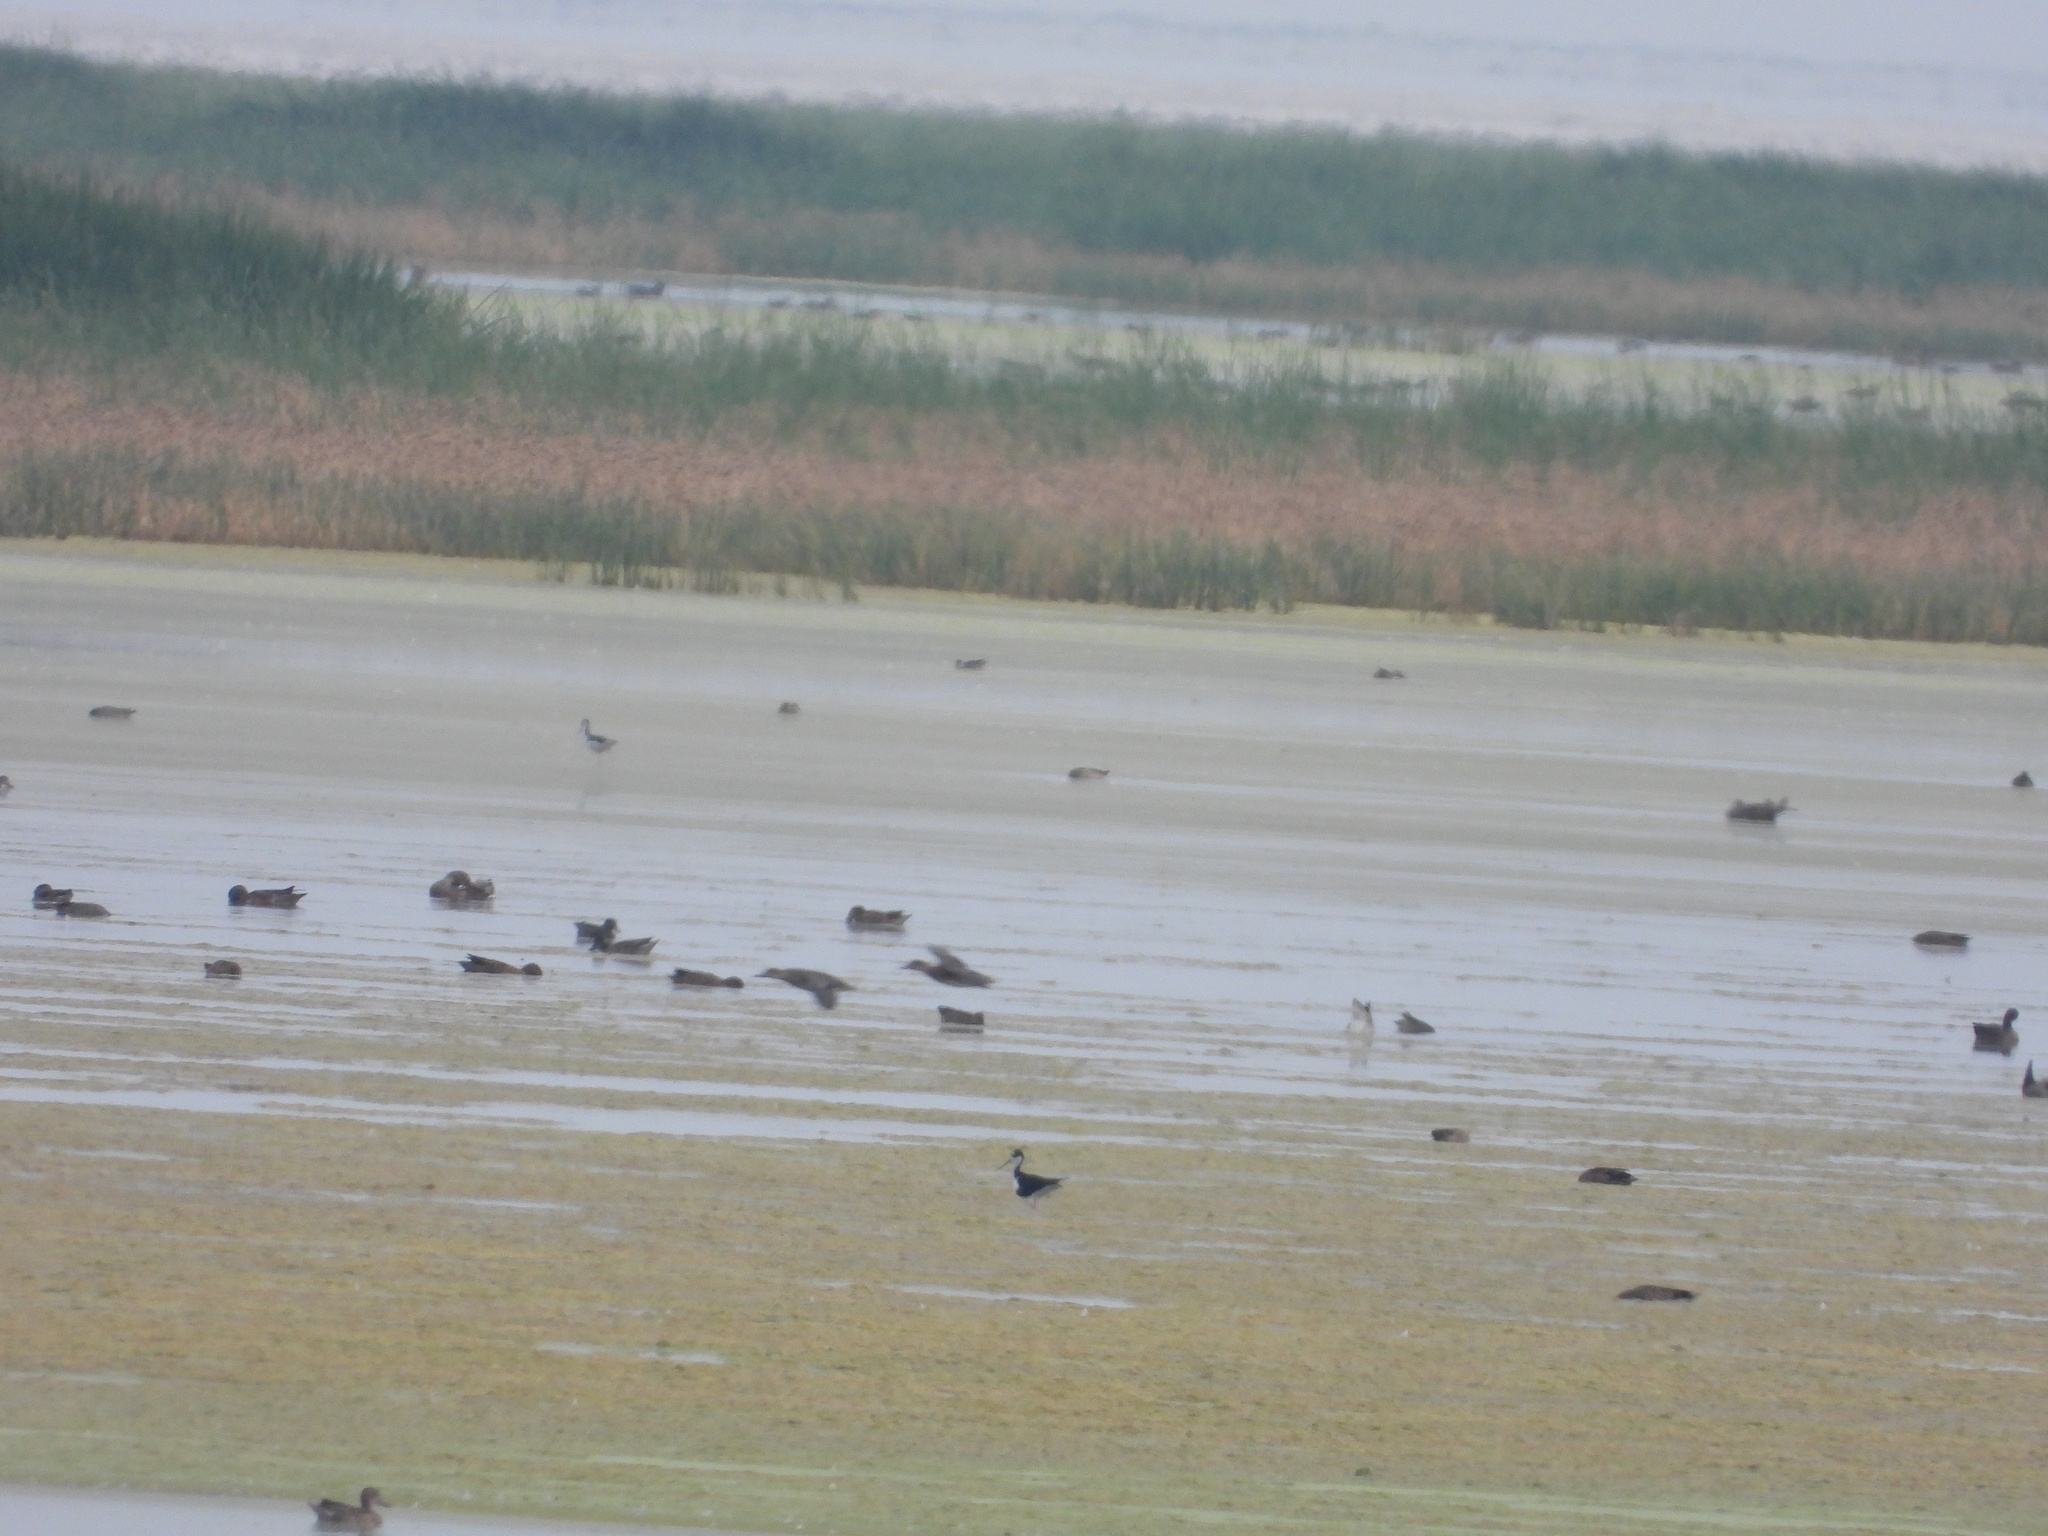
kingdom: Animalia
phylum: Chordata
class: Aves
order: Charadriiformes
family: Recurvirostridae
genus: Himantopus
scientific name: Himantopus mexicanus
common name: Black-necked stilt
